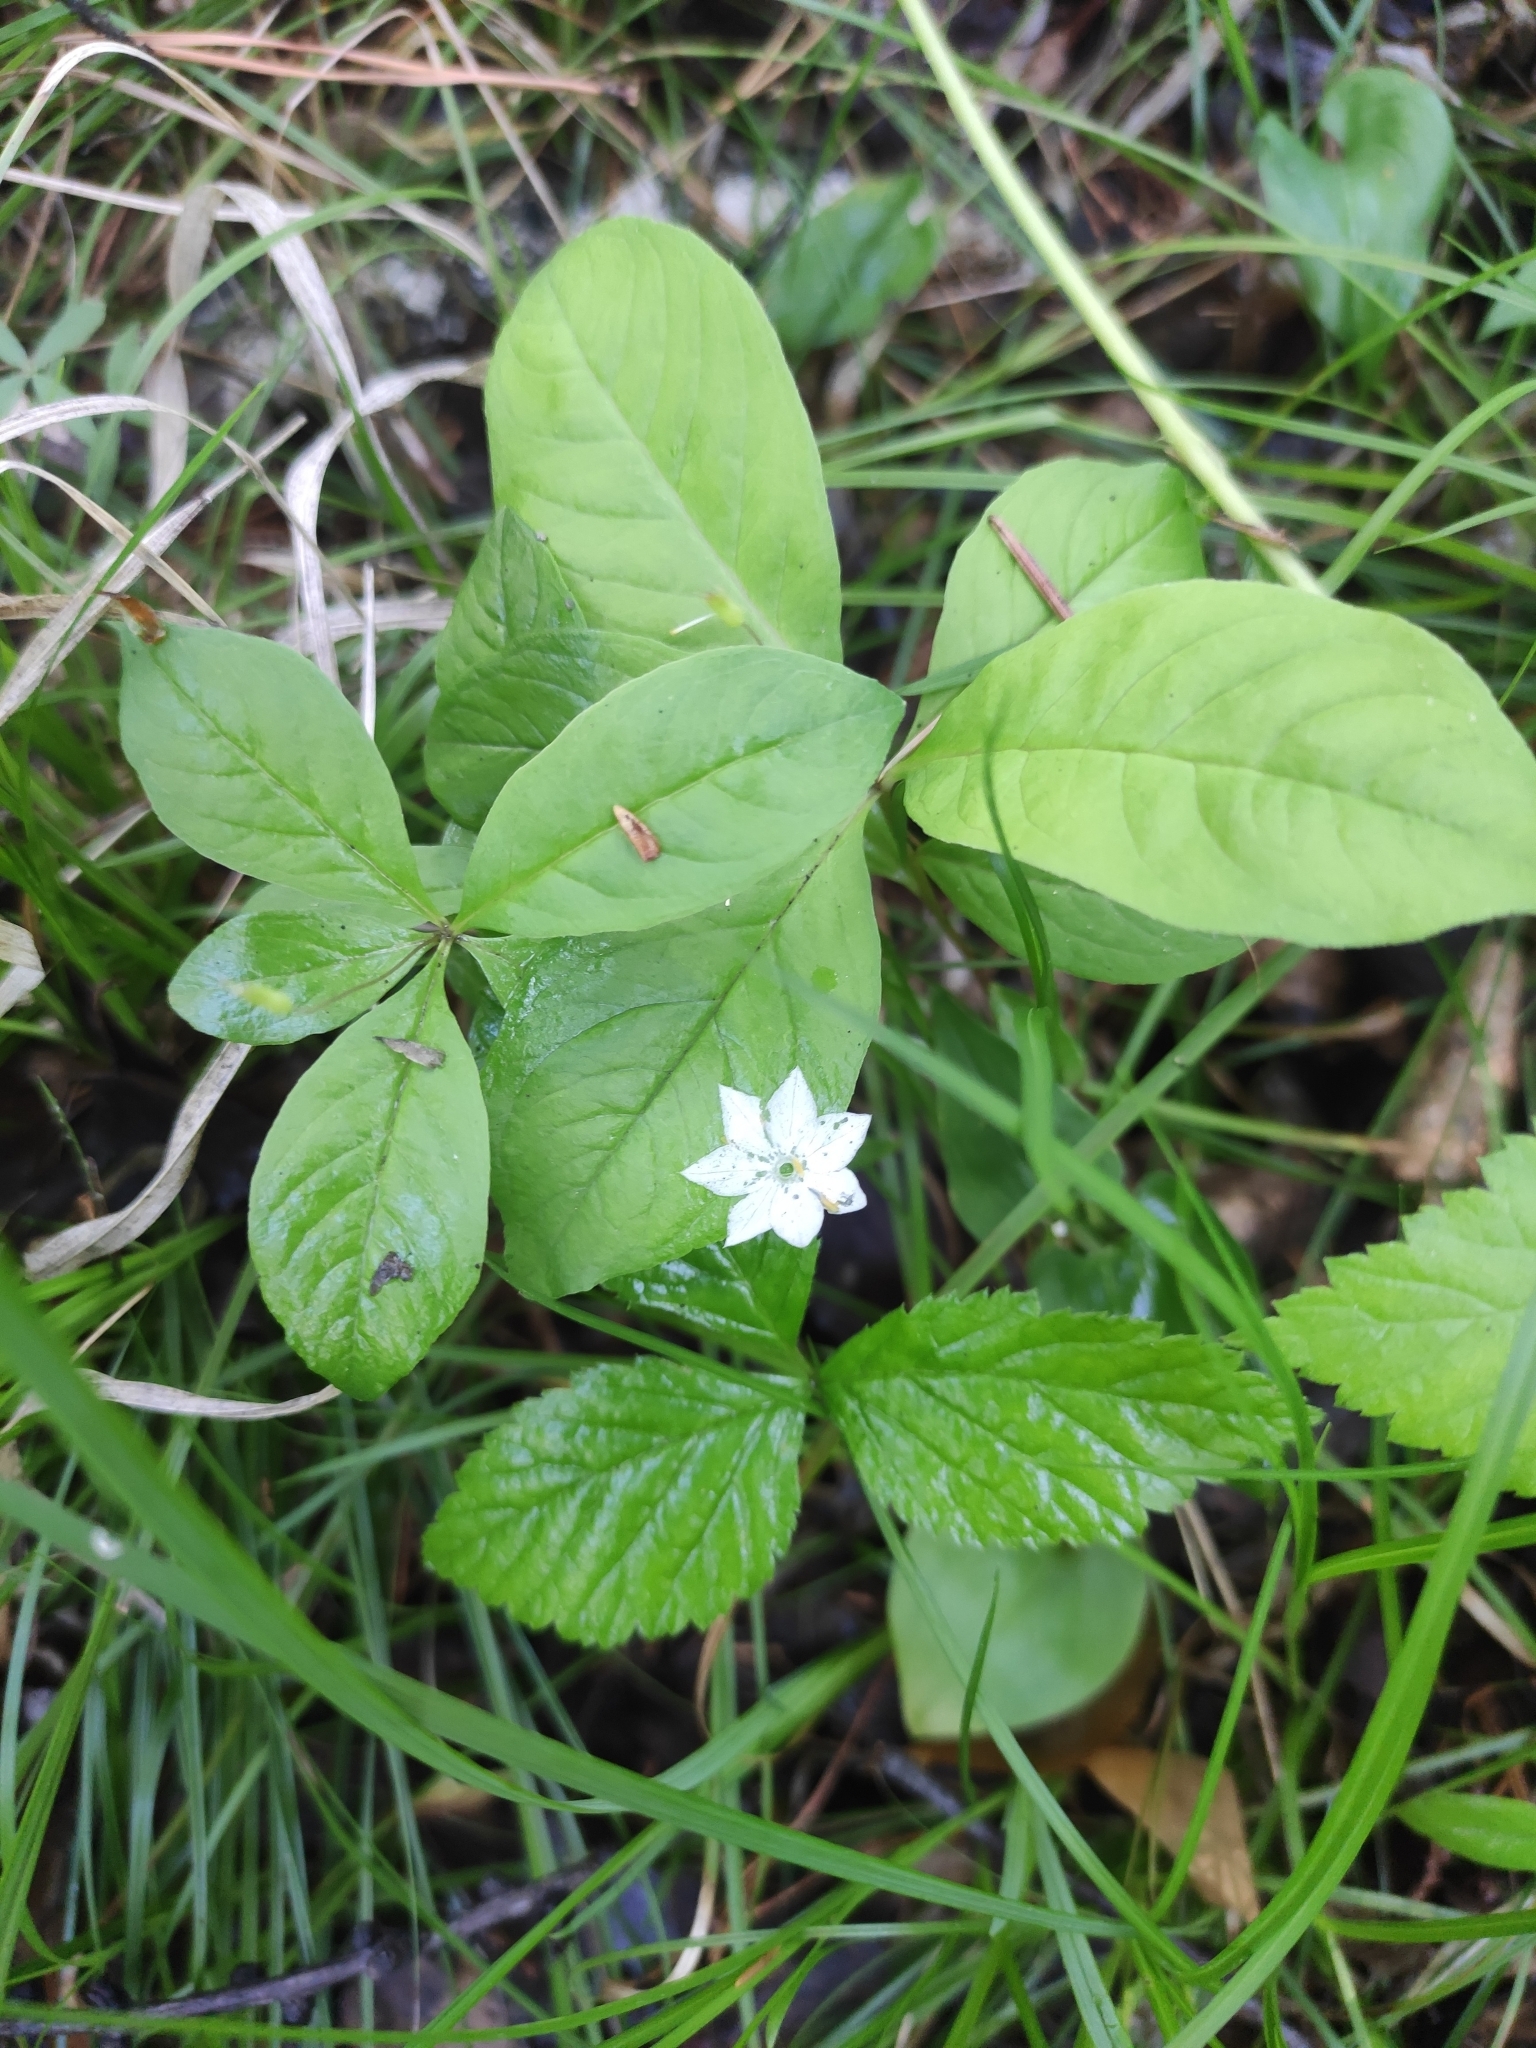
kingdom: Plantae
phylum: Tracheophyta
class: Magnoliopsida
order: Ericales
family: Primulaceae
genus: Lysimachia
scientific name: Lysimachia europaea
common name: Arctic starflower
